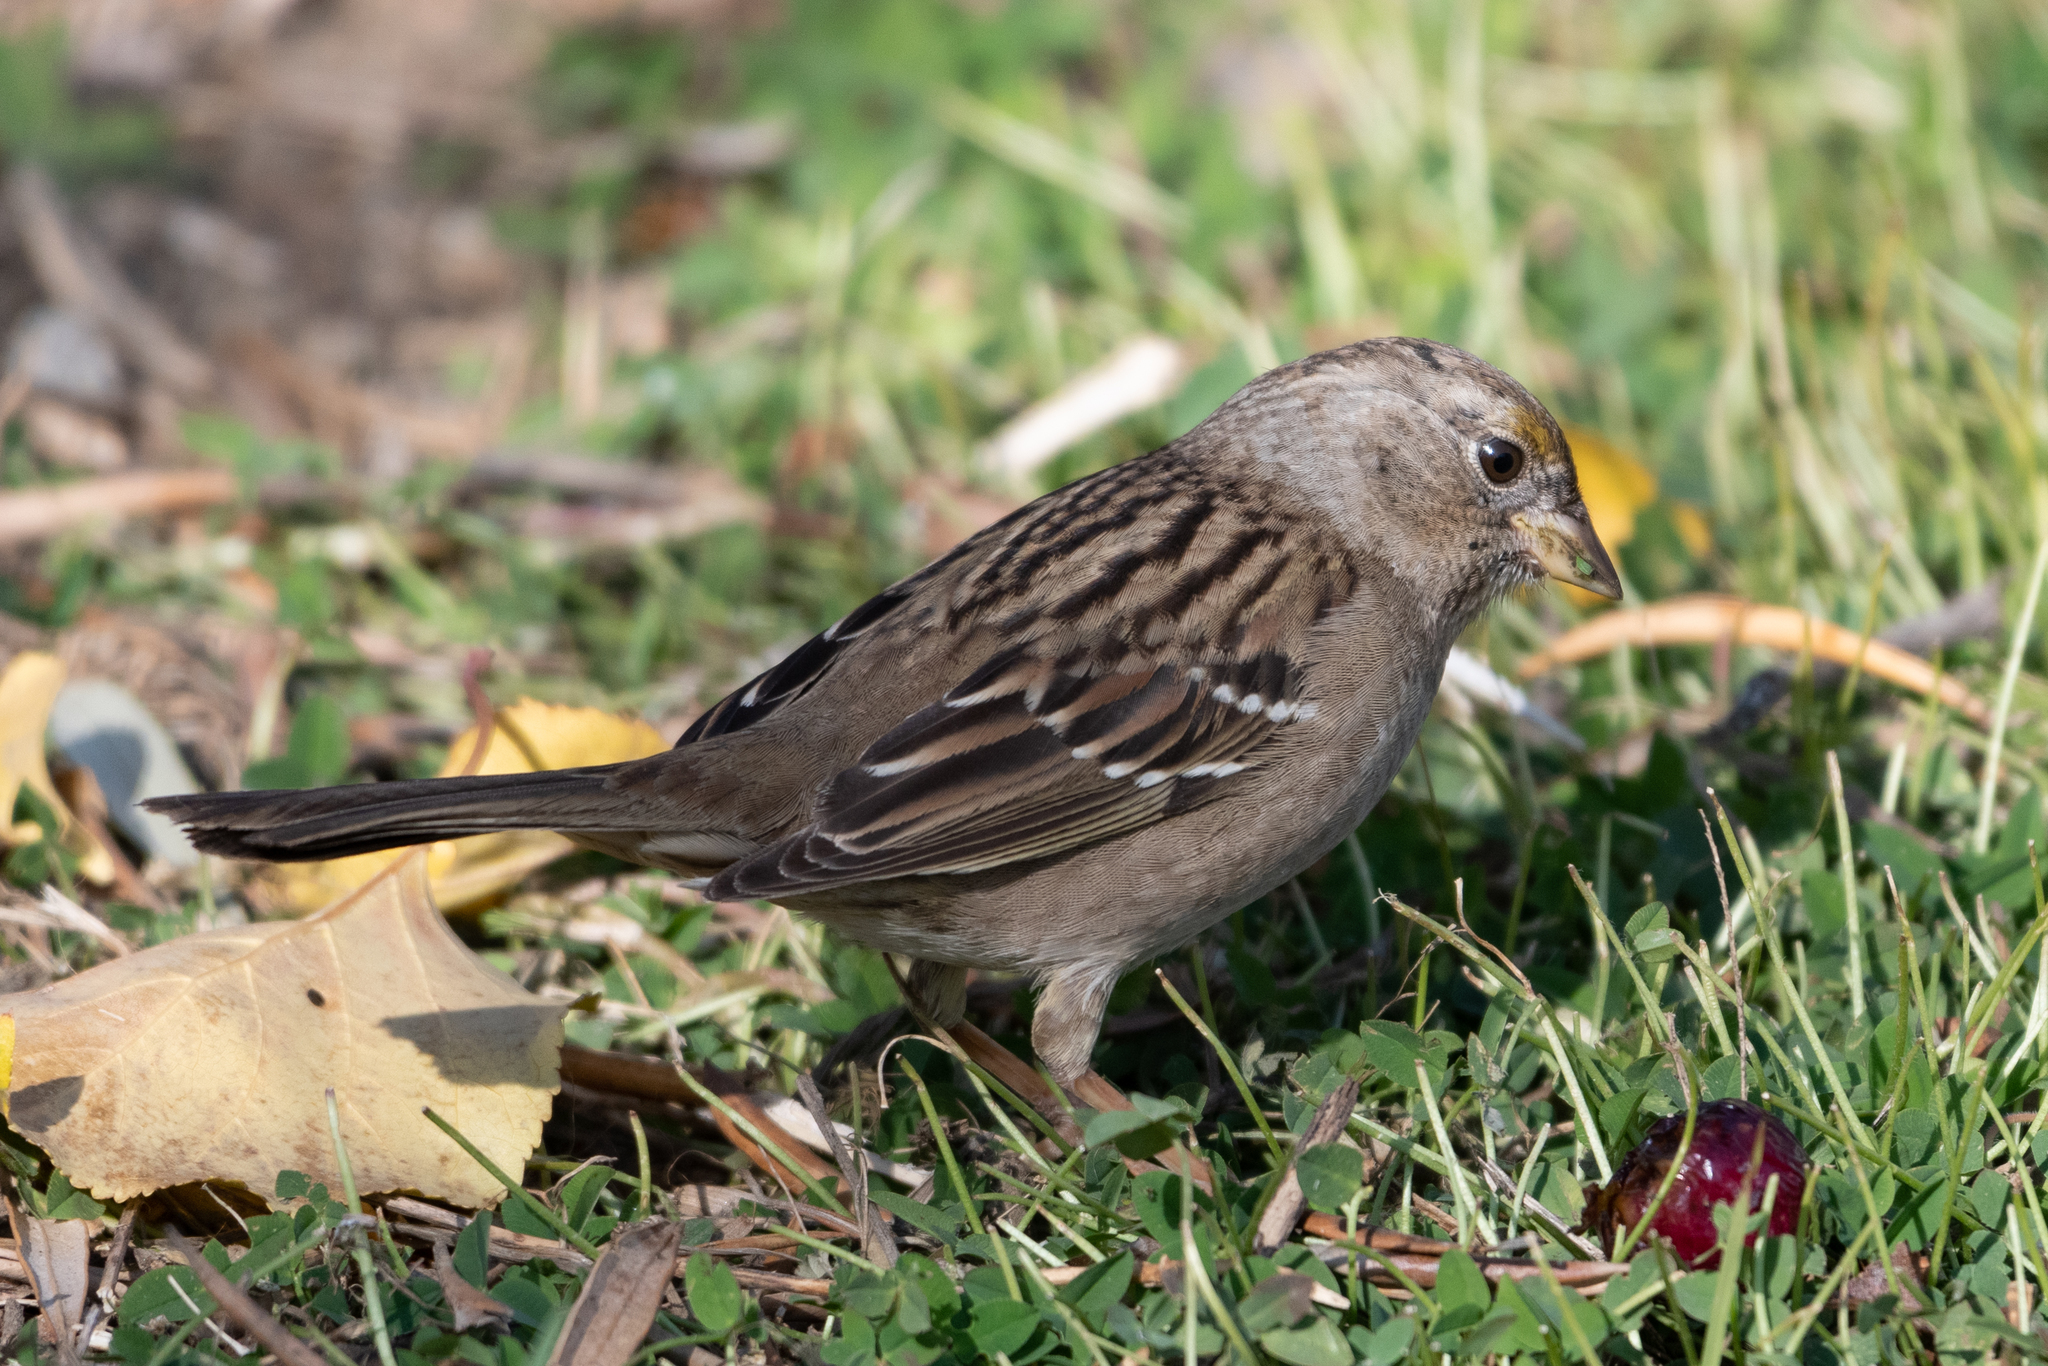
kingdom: Animalia
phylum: Chordata
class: Aves
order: Passeriformes
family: Passerellidae
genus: Zonotrichia
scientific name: Zonotrichia atricapilla
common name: Golden-crowned sparrow
